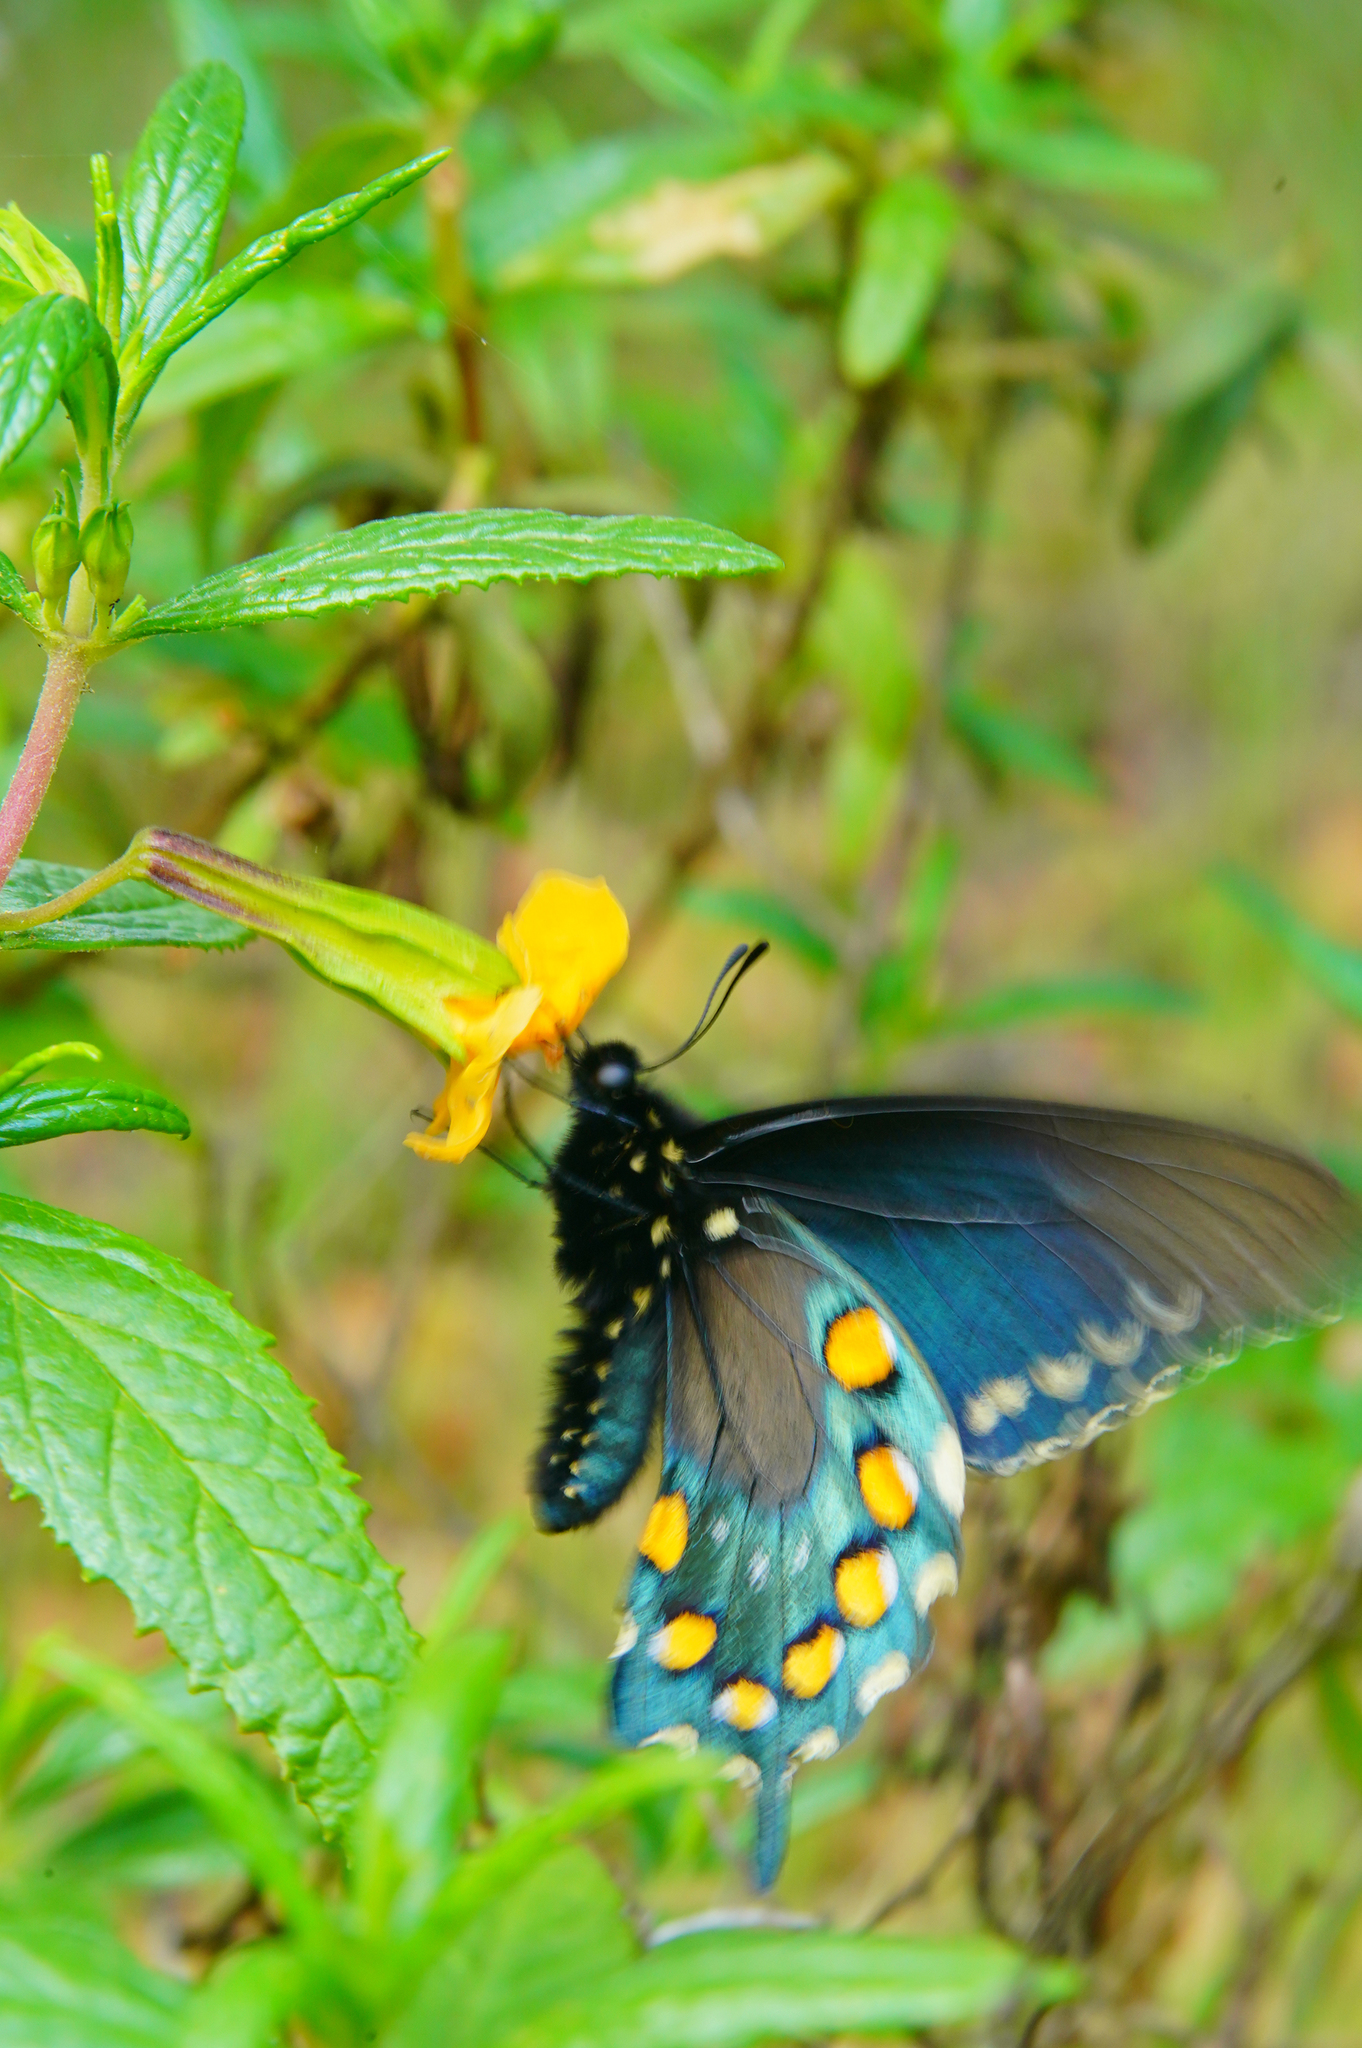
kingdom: Animalia
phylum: Arthropoda
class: Insecta
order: Lepidoptera
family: Papilionidae
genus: Battus
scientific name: Battus philenor
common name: Pipevine swallowtail
